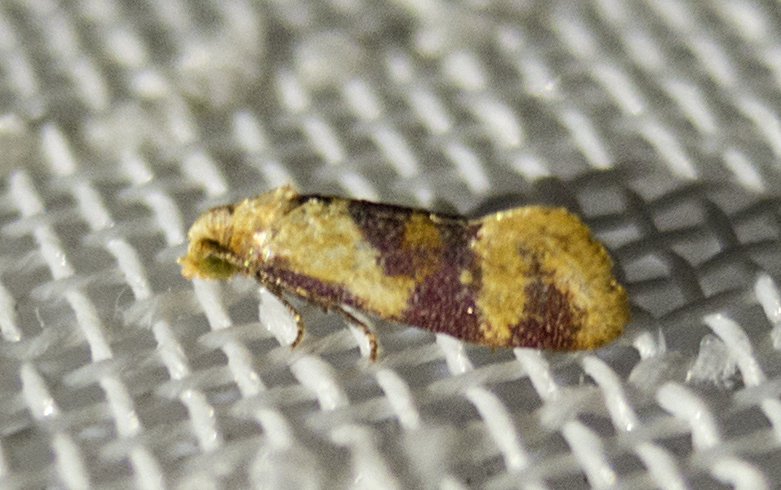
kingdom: Animalia
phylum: Arthropoda
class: Insecta
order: Lepidoptera
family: Tortricidae
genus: Diceratura
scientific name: Diceratura ostrinana
